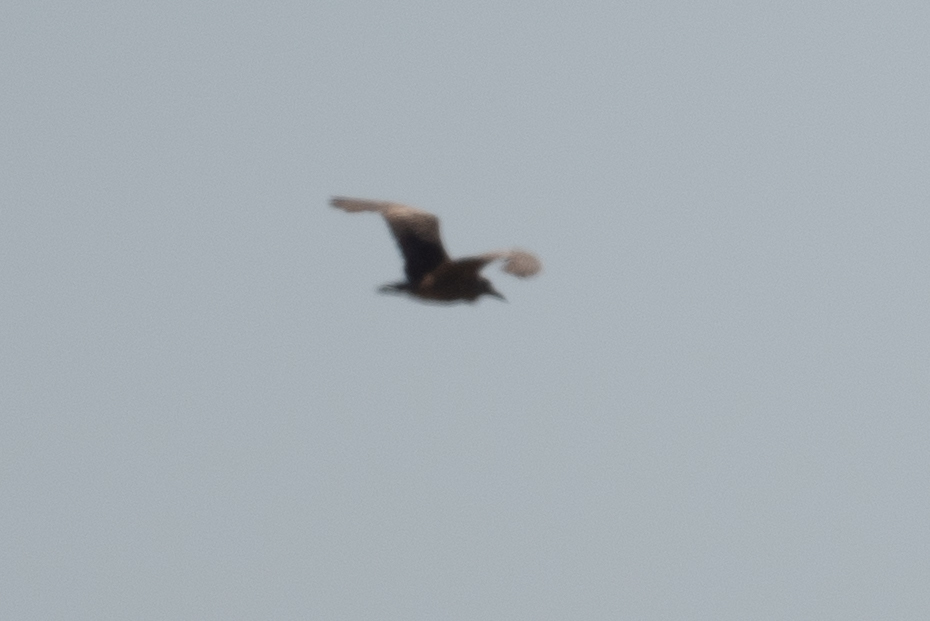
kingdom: Animalia
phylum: Chordata
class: Aves
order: Pelecaniformes
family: Ardeidae
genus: Botaurus
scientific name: Botaurus lentiginosus
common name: American bittern
